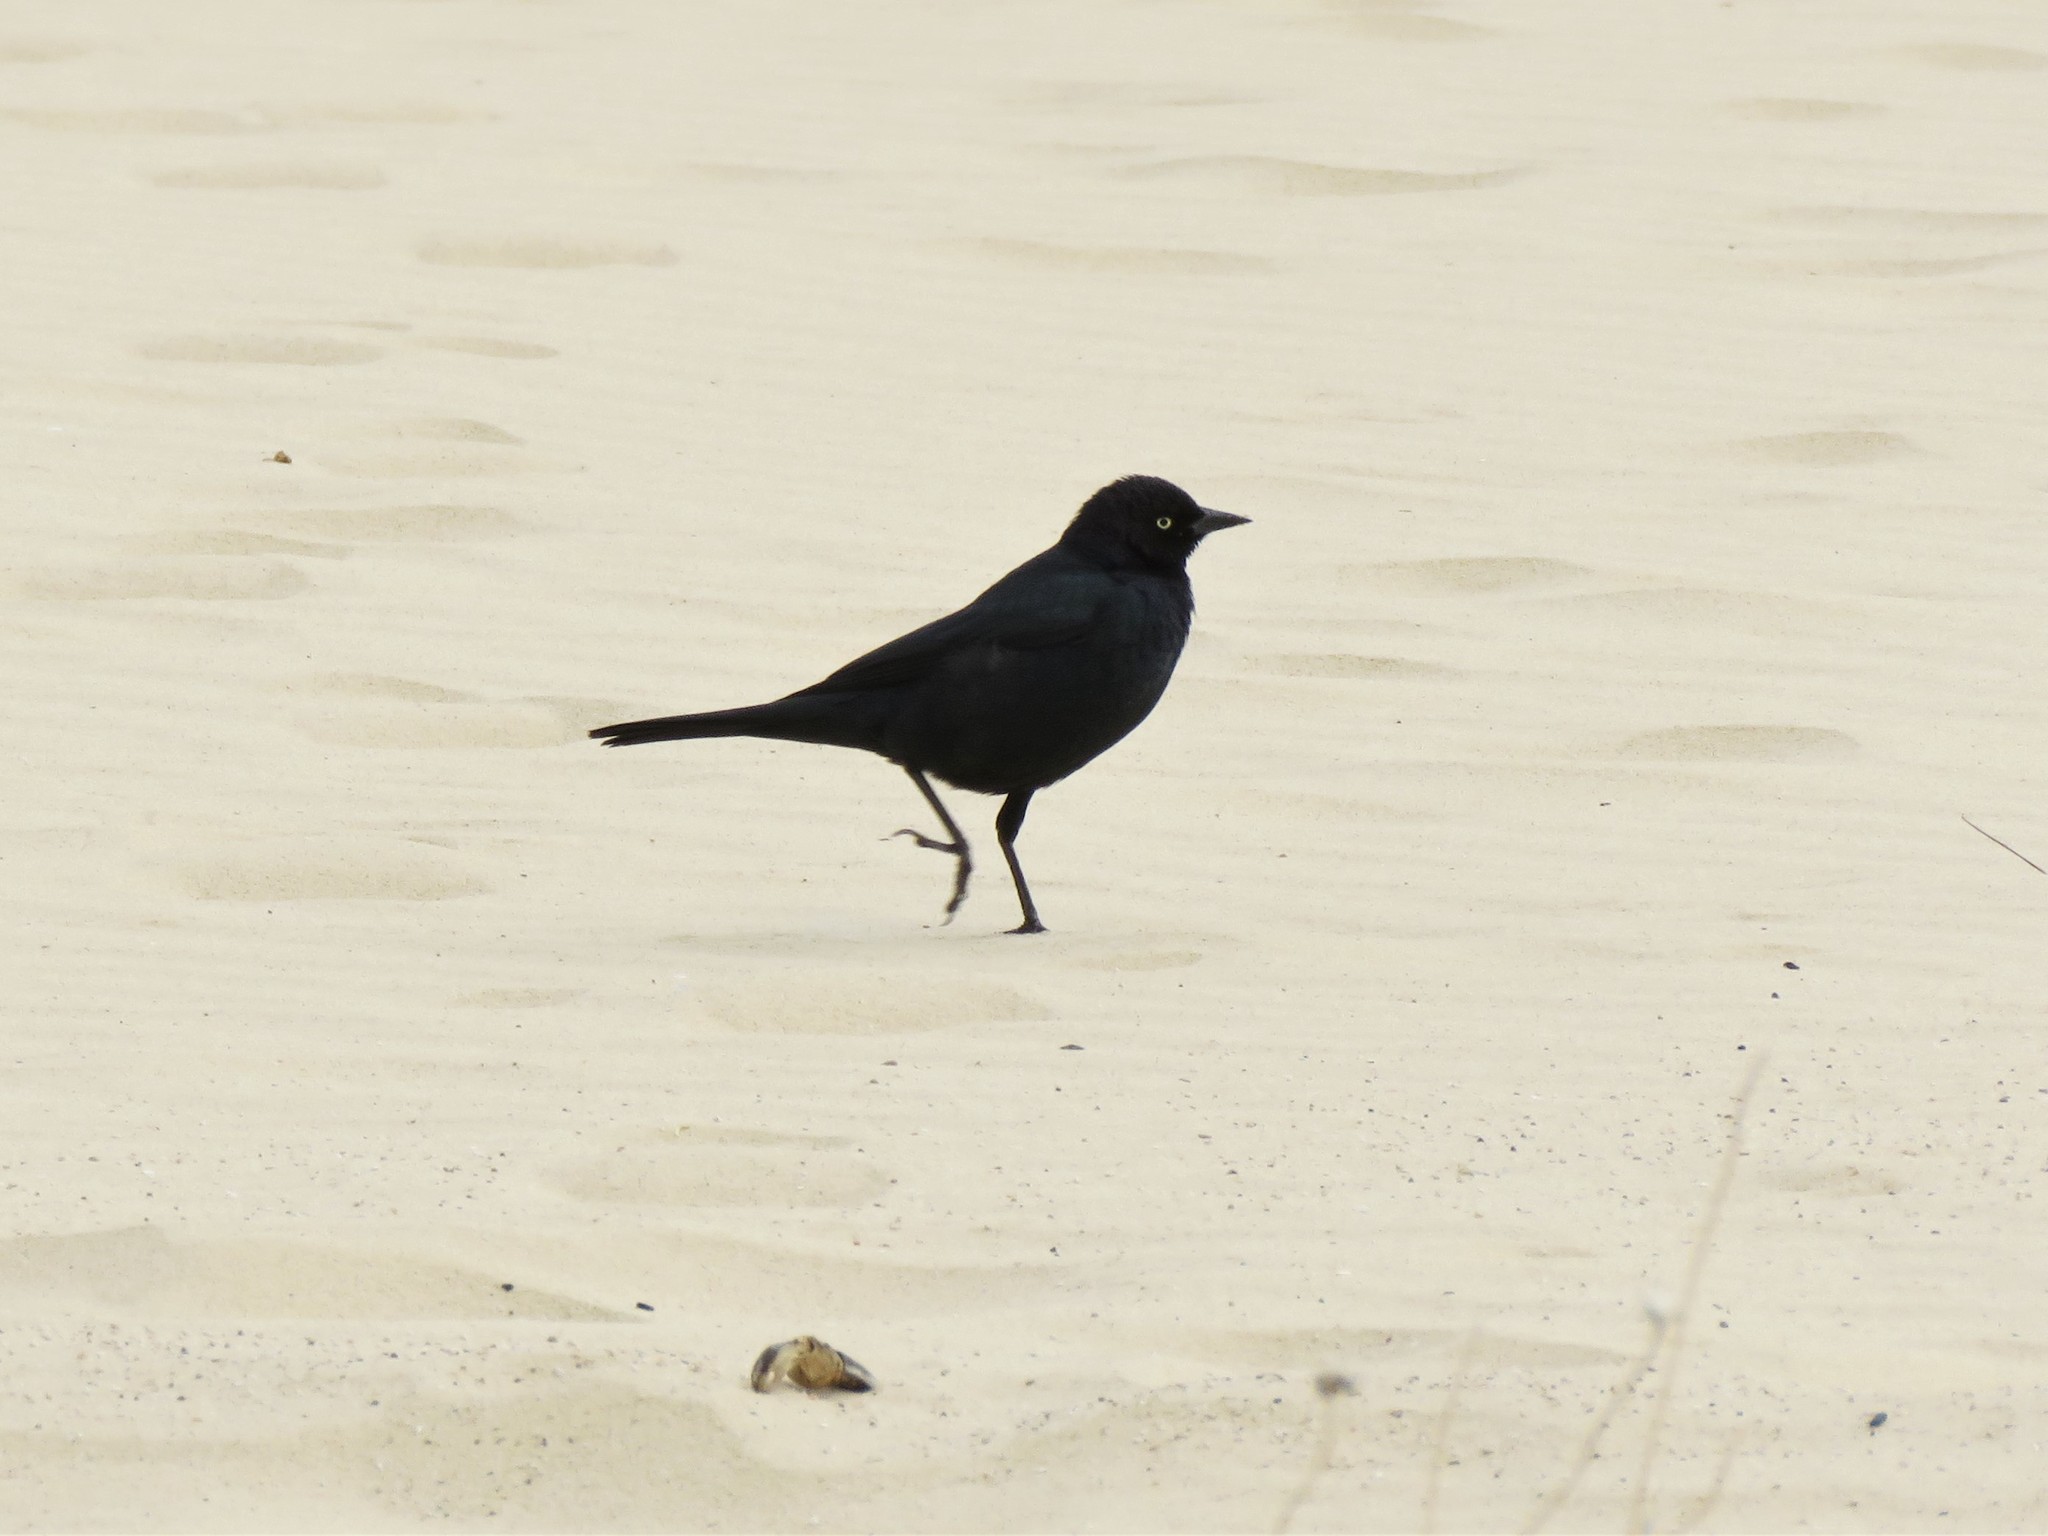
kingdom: Animalia
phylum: Chordata
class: Aves
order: Passeriformes
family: Icteridae
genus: Euphagus
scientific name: Euphagus cyanocephalus
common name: Brewer's blackbird
